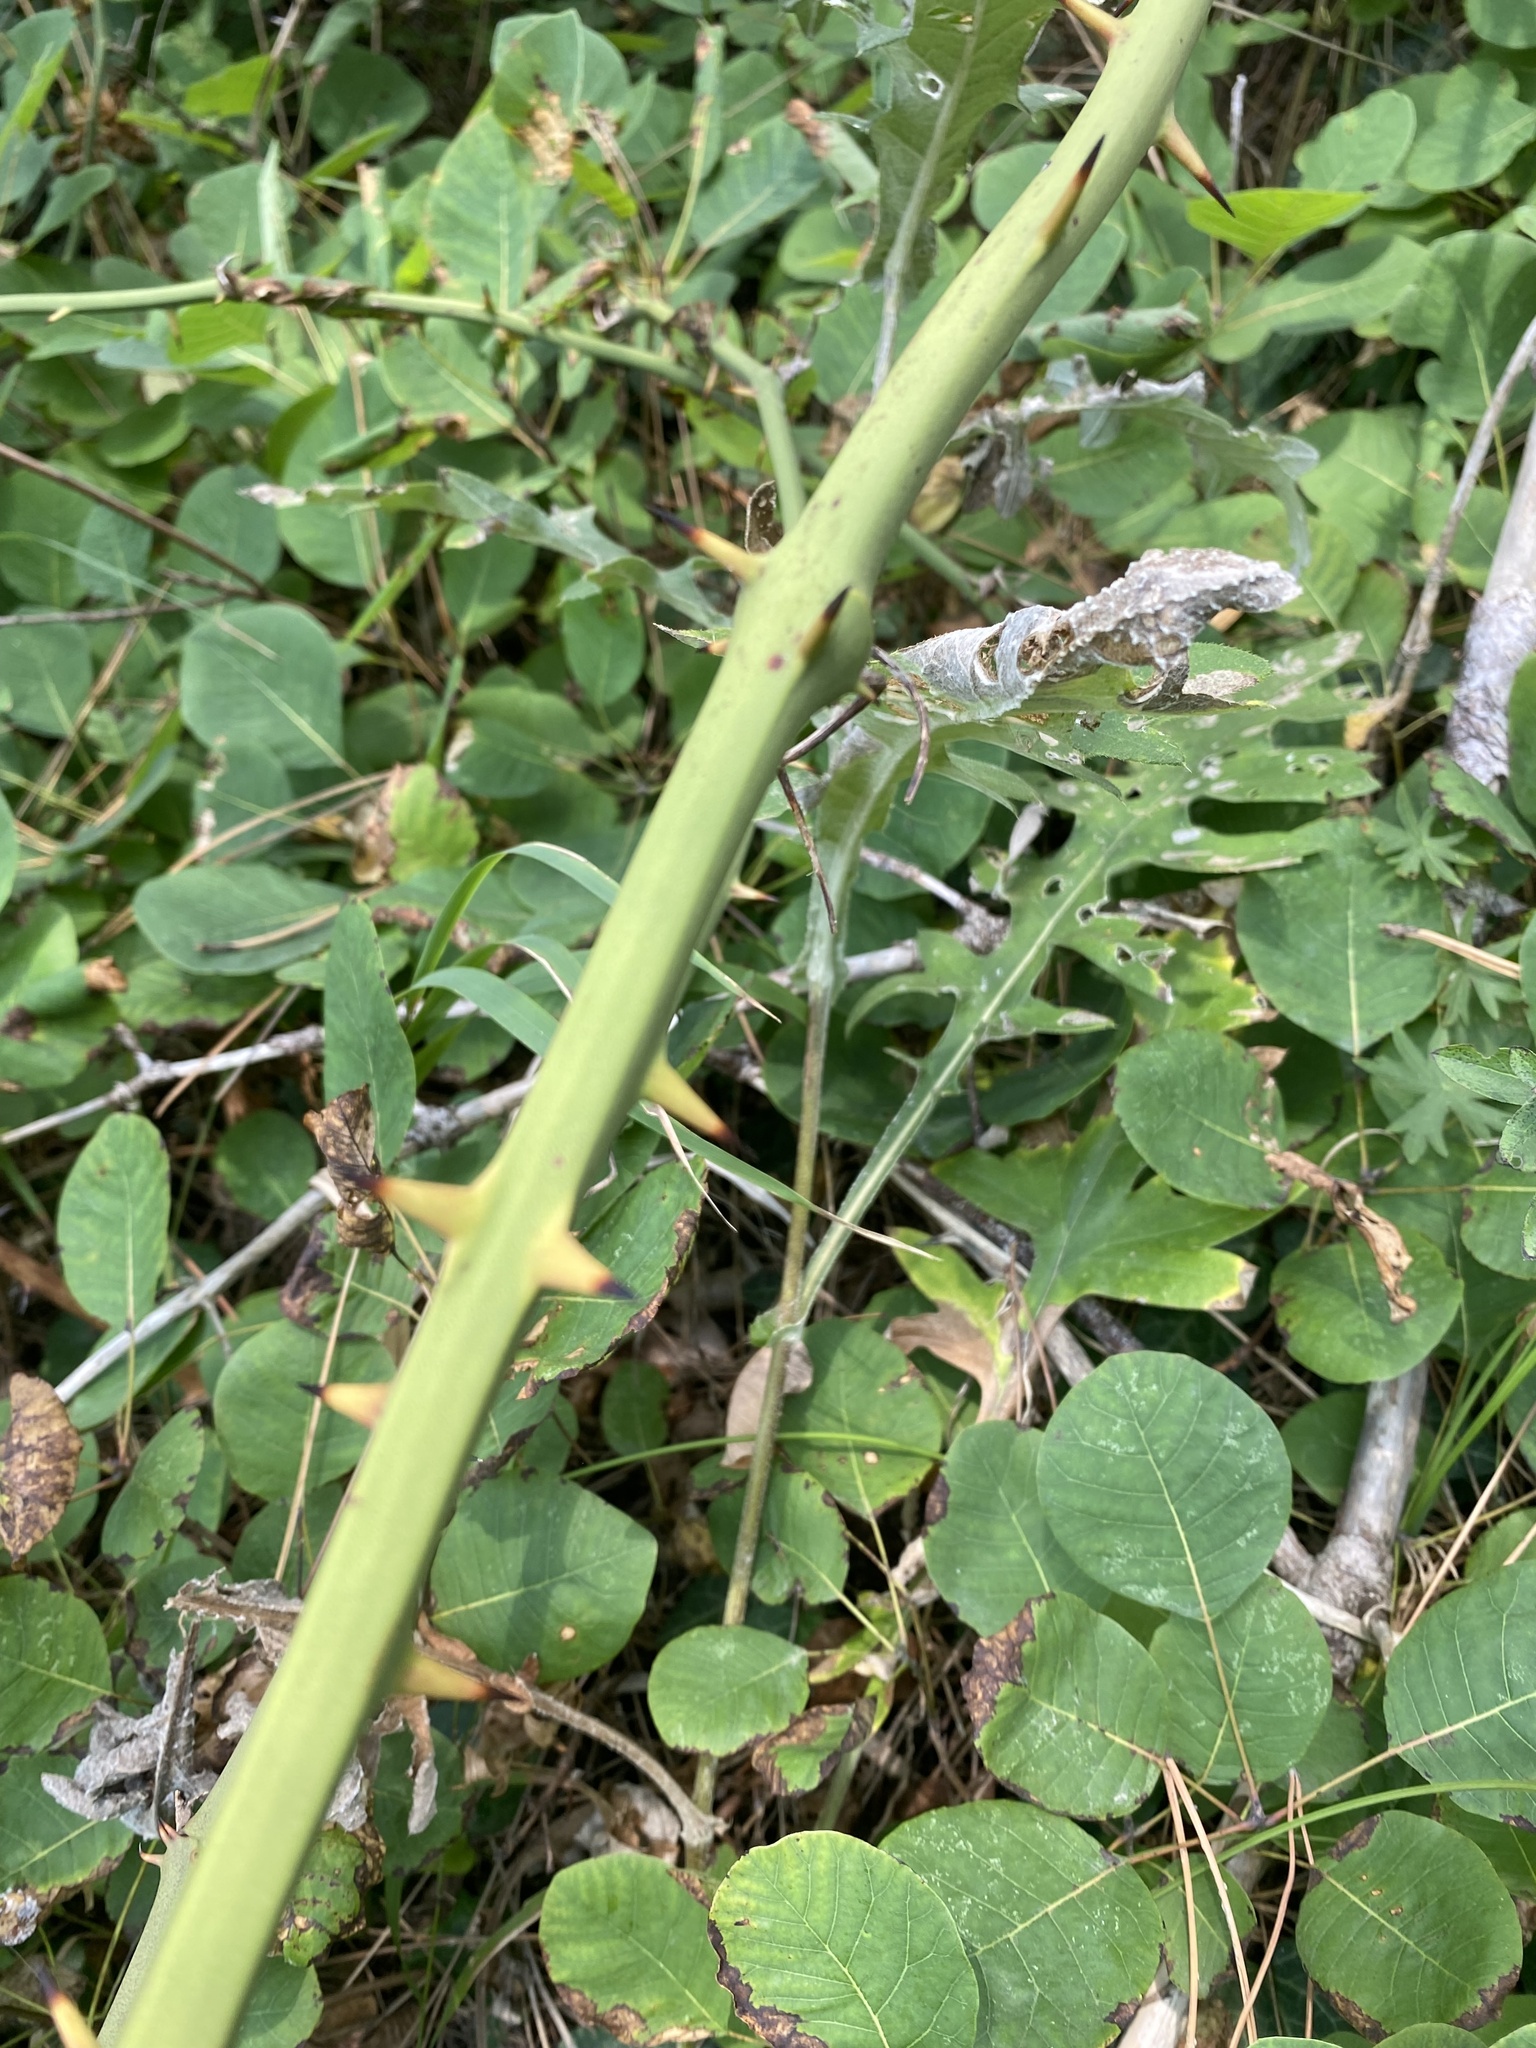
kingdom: Plantae
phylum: Tracheophyta
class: Liliopsida
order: Liliales
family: Smilacaceae
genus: Smilax
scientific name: Smilax excelsa
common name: Larger smilax
